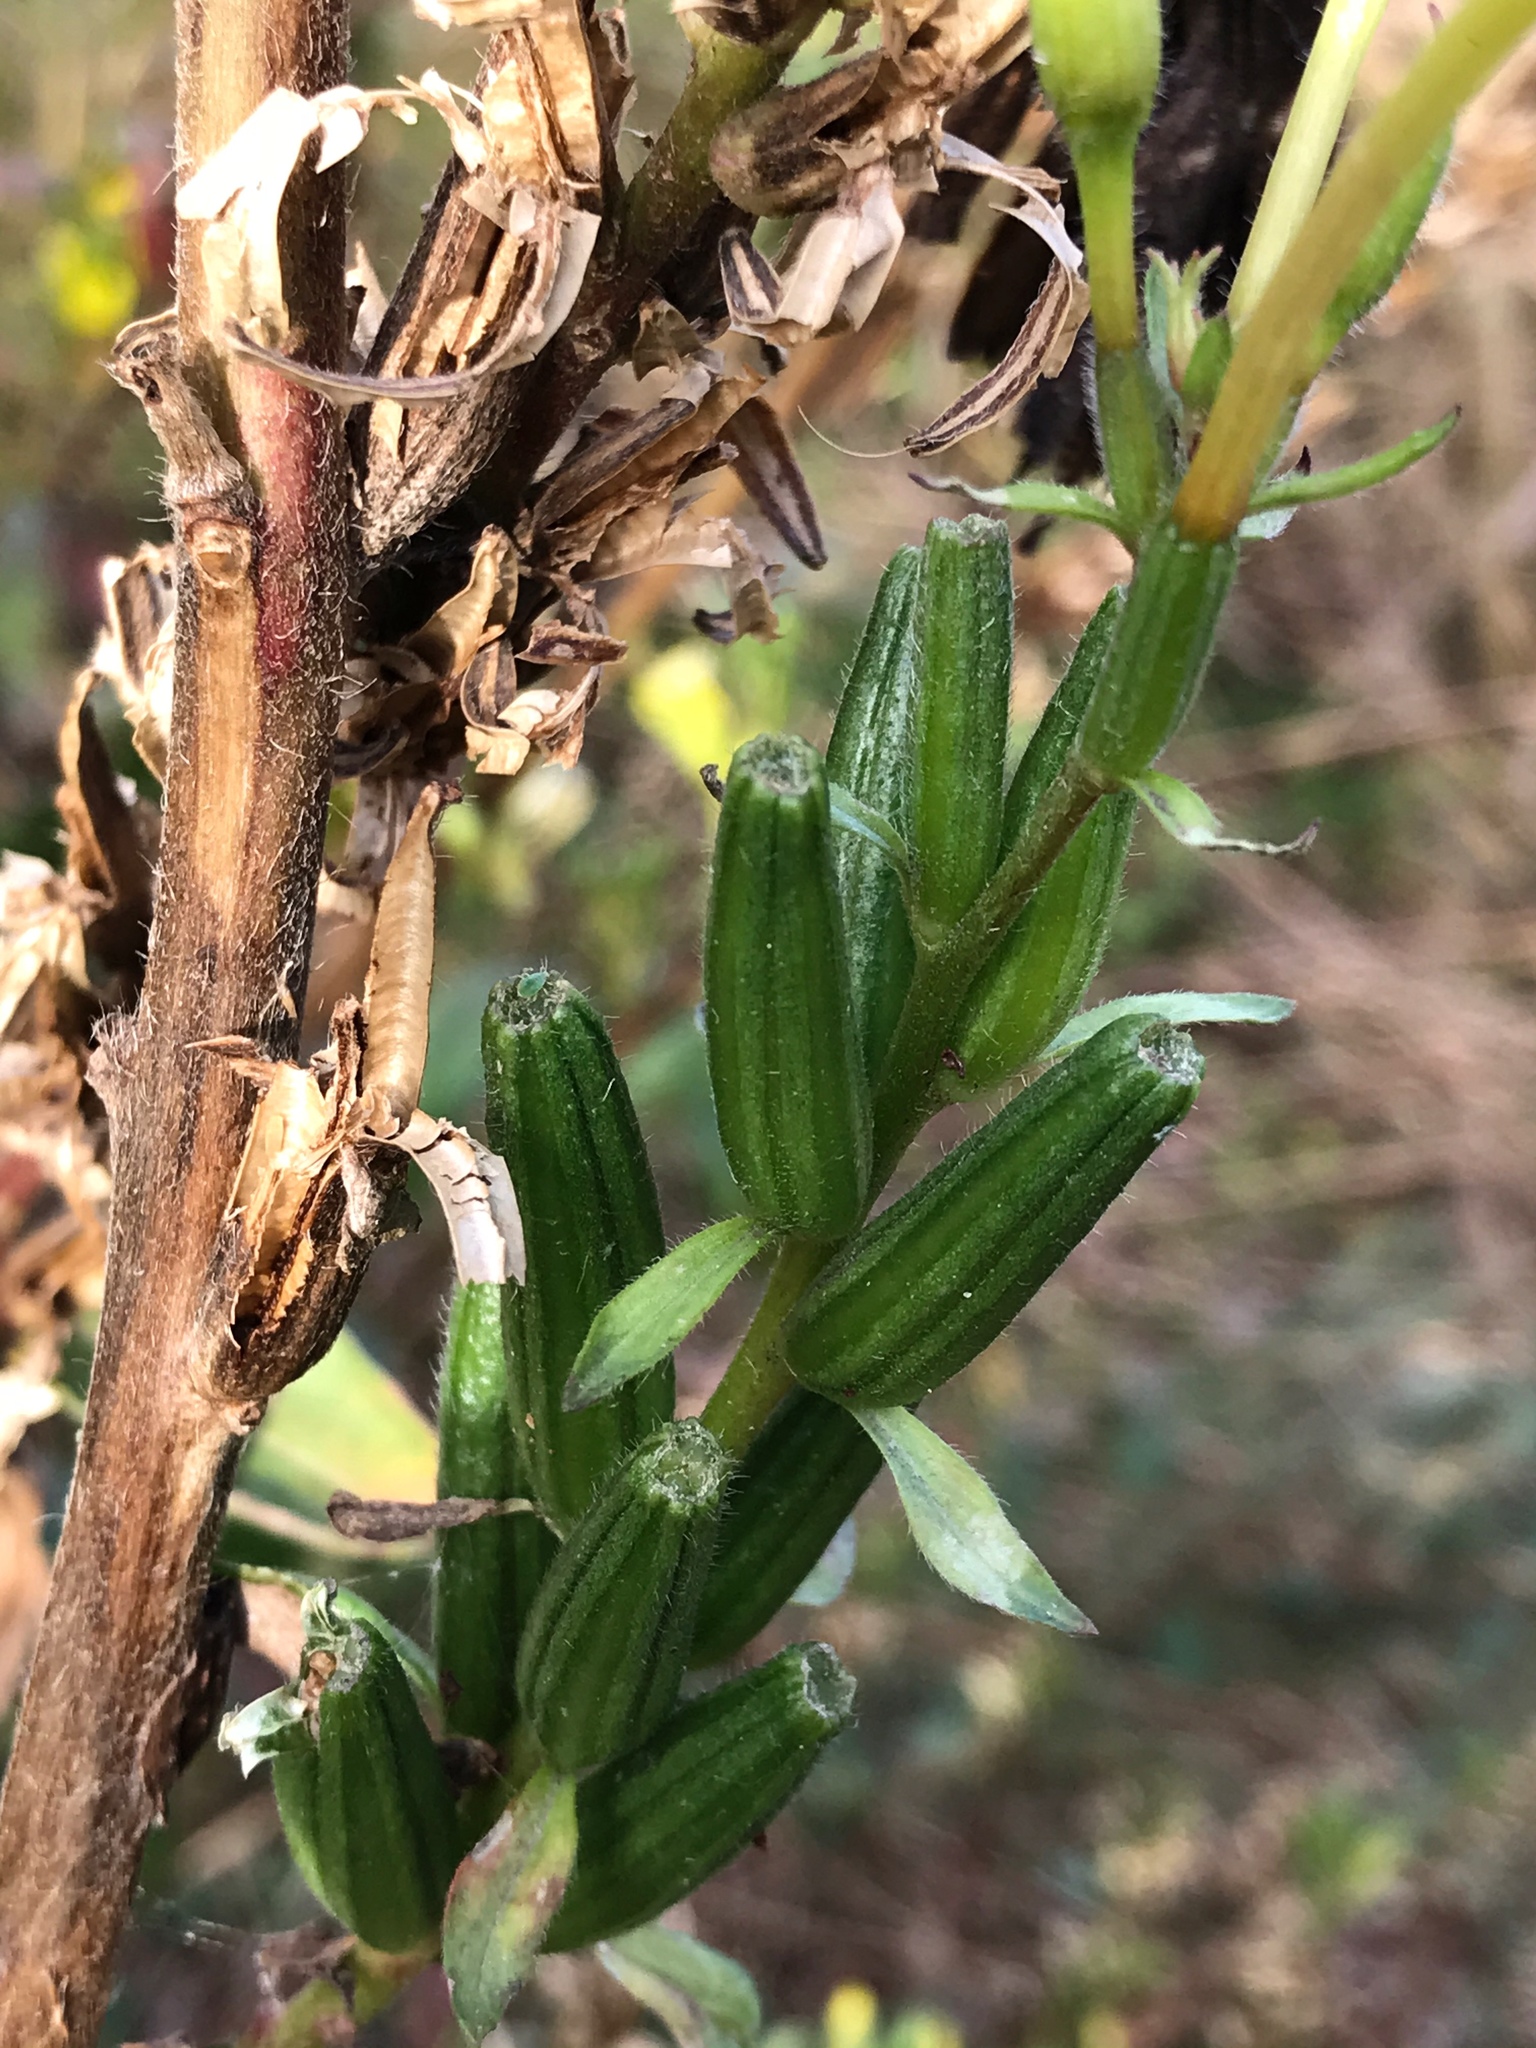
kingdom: Plantae
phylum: Tracheophyta
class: Magnoliopsida
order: Myrtales
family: Onagraceae
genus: Oenothera
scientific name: Oenothera biennis
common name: Common evening-primrose
